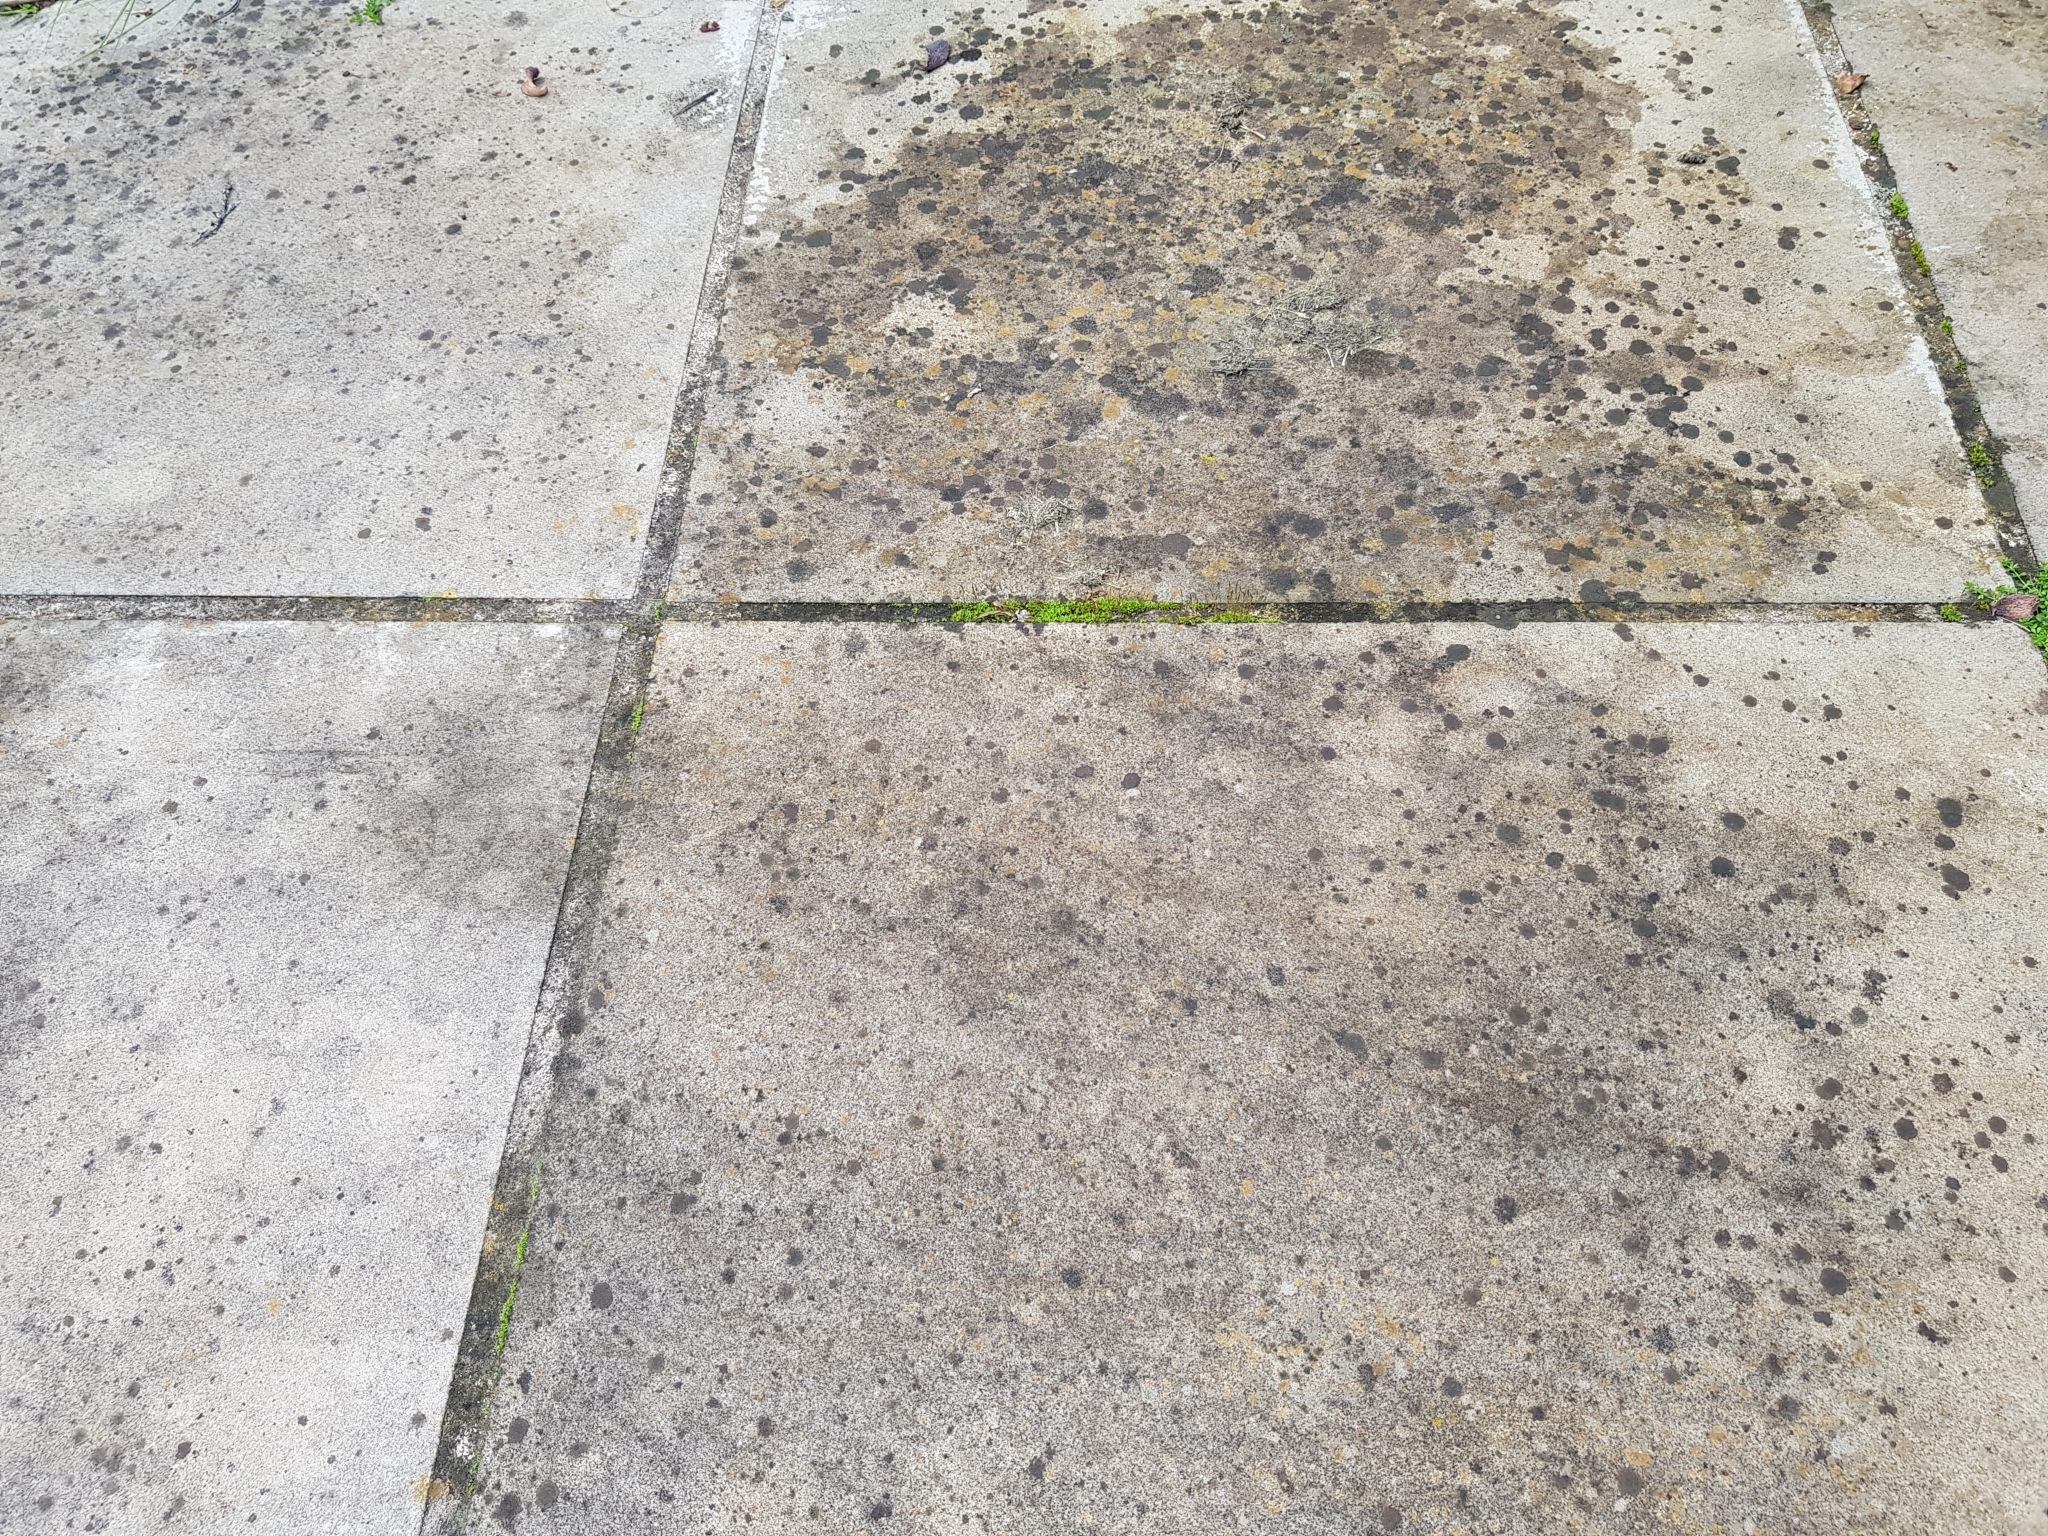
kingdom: Plantae
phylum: Bryophyta
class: Bryopsida
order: Pottiales
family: Pottiaceae
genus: Tortula
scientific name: Tortula muralis
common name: Wall screw-moss
